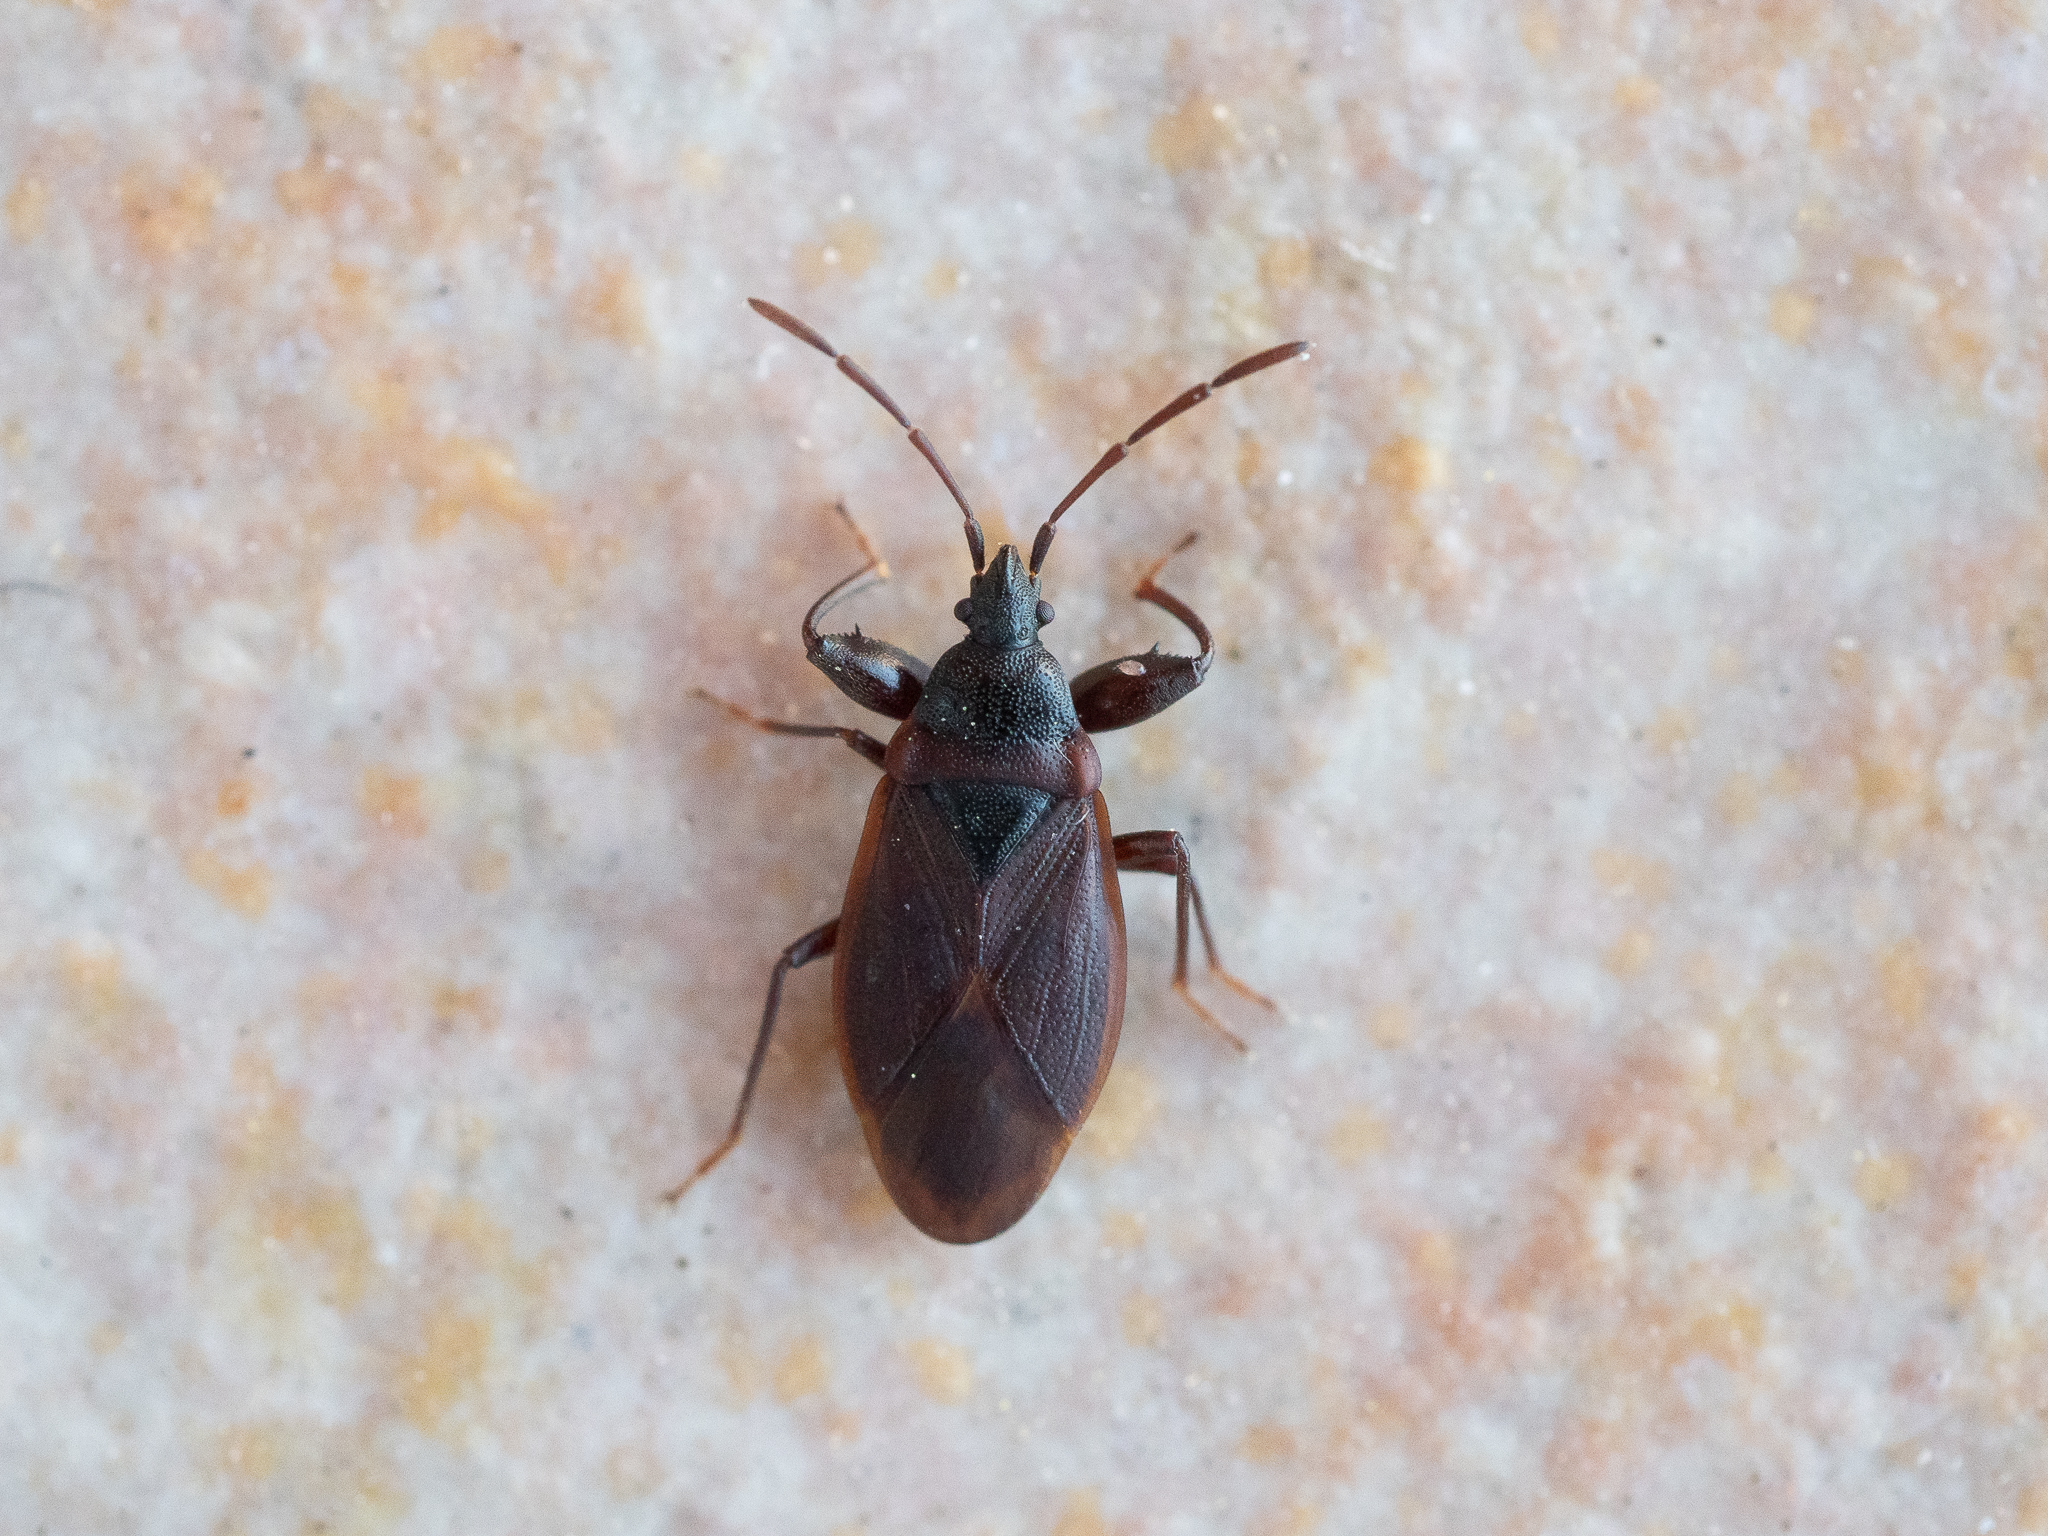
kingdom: Animalia
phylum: Arthropoda
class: Insecta
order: Hemiptera
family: Rhyparochromidae
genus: Gastrodes
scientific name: Gastrodes grossipes
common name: Pine cone bug
